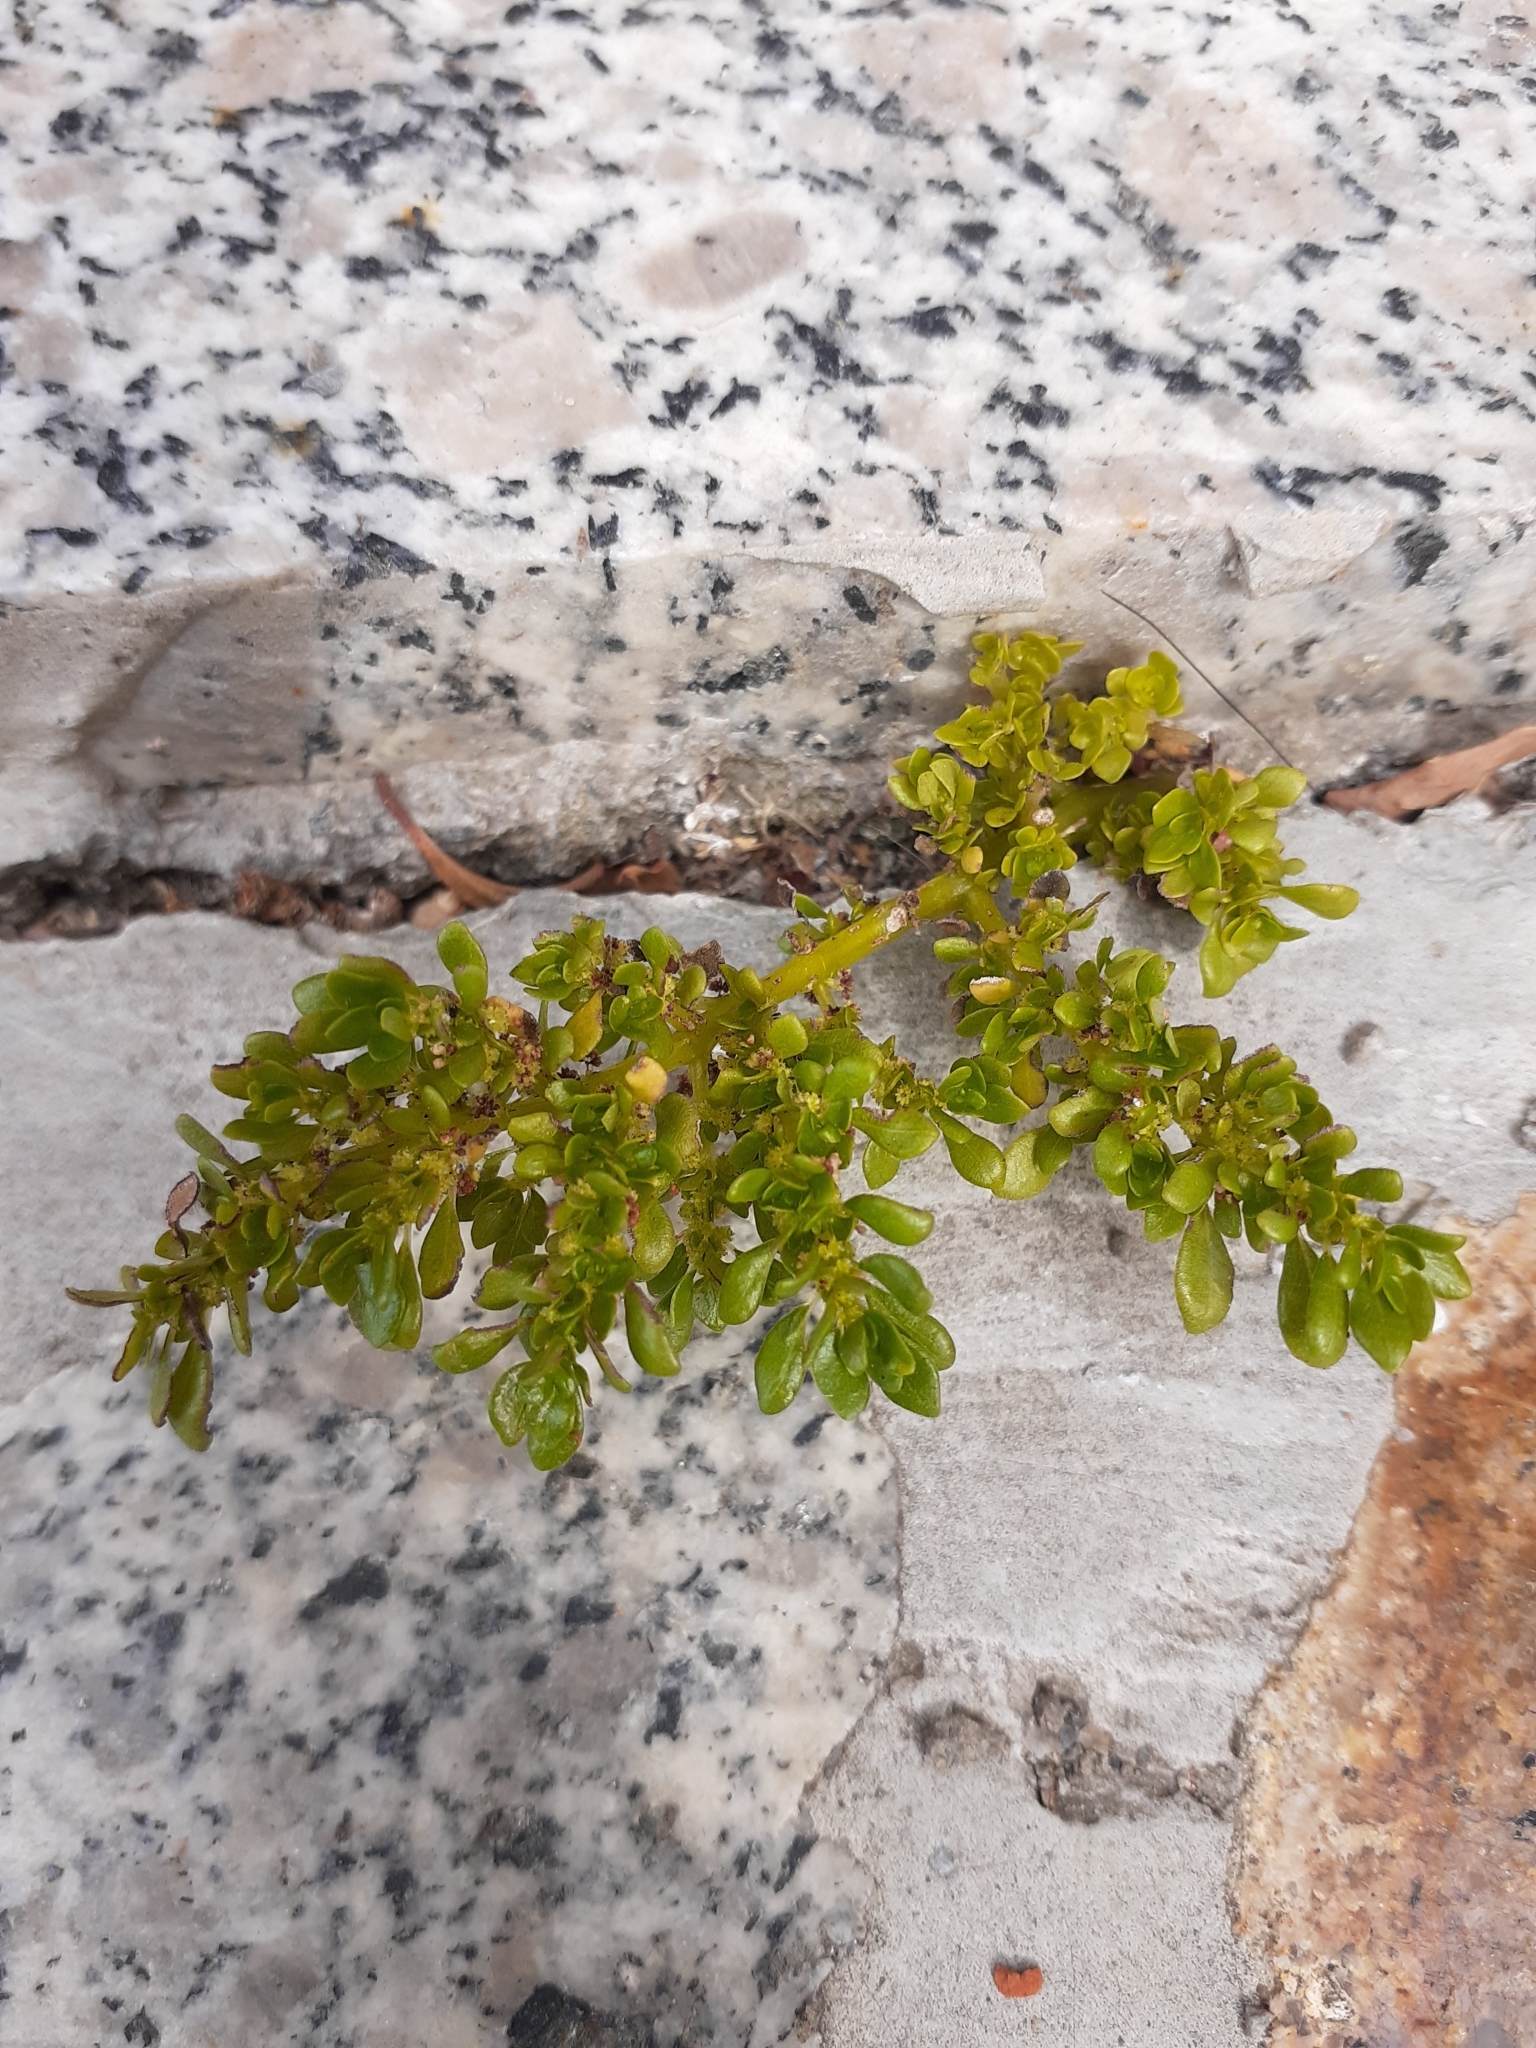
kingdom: Plantae
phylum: Tracheophyta
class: Magnoliopsida
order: Rosales
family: Urticaceae
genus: Pilea
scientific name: Pilea microphylla
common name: Artillery-plant
